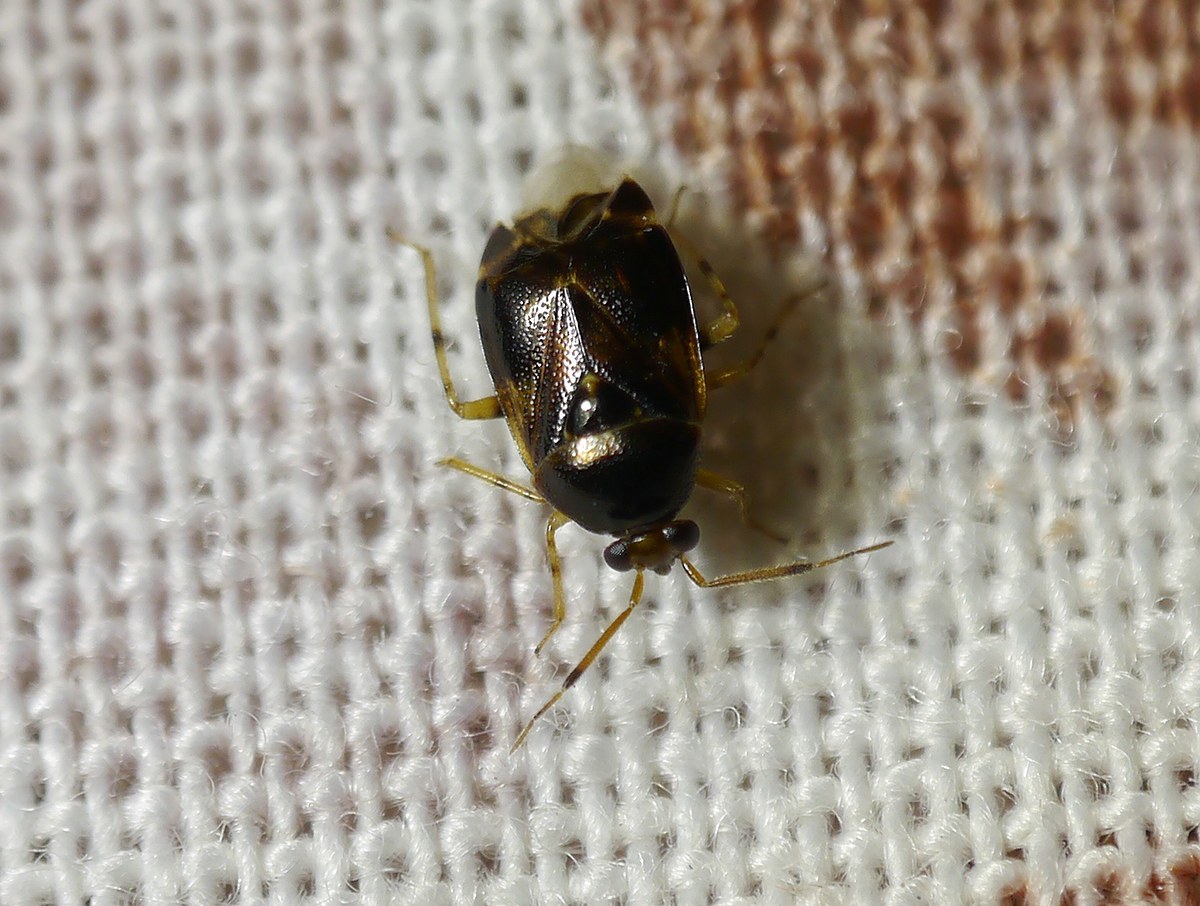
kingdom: Animalia
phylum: Arthropoda
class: Insecta
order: Hemiptera
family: Miridae
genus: Deraeocoris
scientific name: Deraeocoris lutescens
